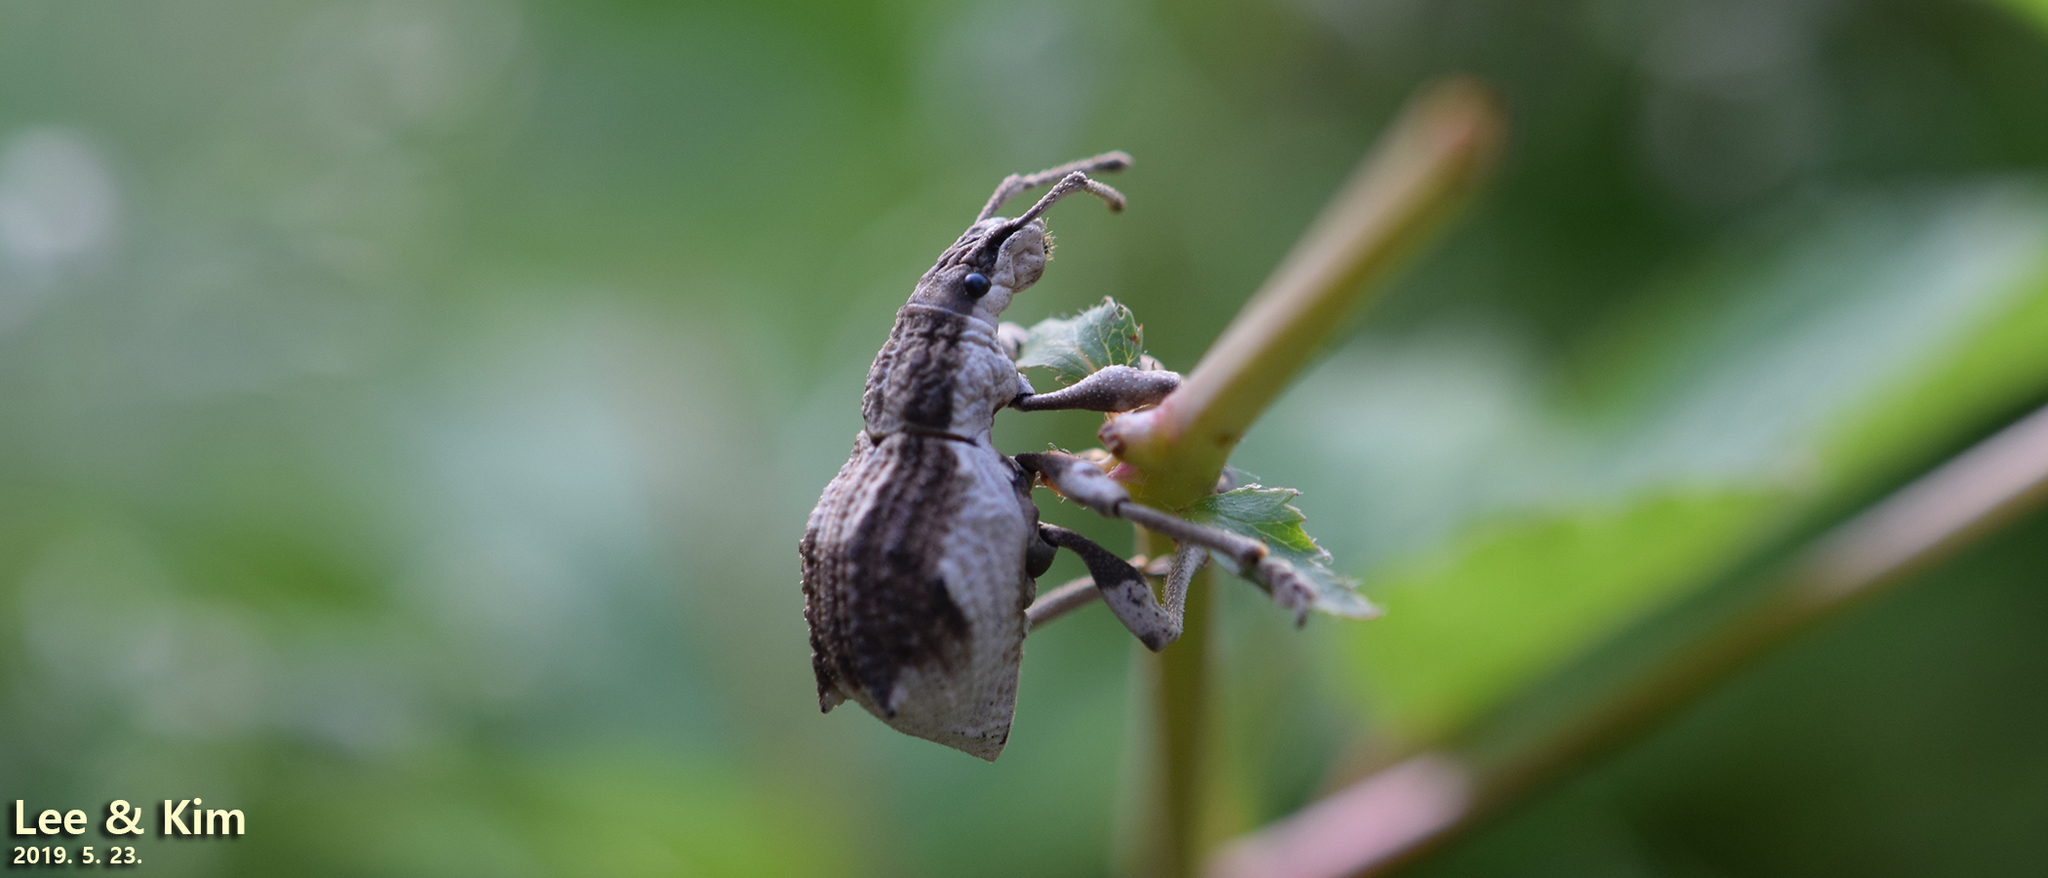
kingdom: Animalia
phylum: Arthropoda
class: Insecta
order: Coleoptera
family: Curculionidae
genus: Episomus
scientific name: Episomus turritus
